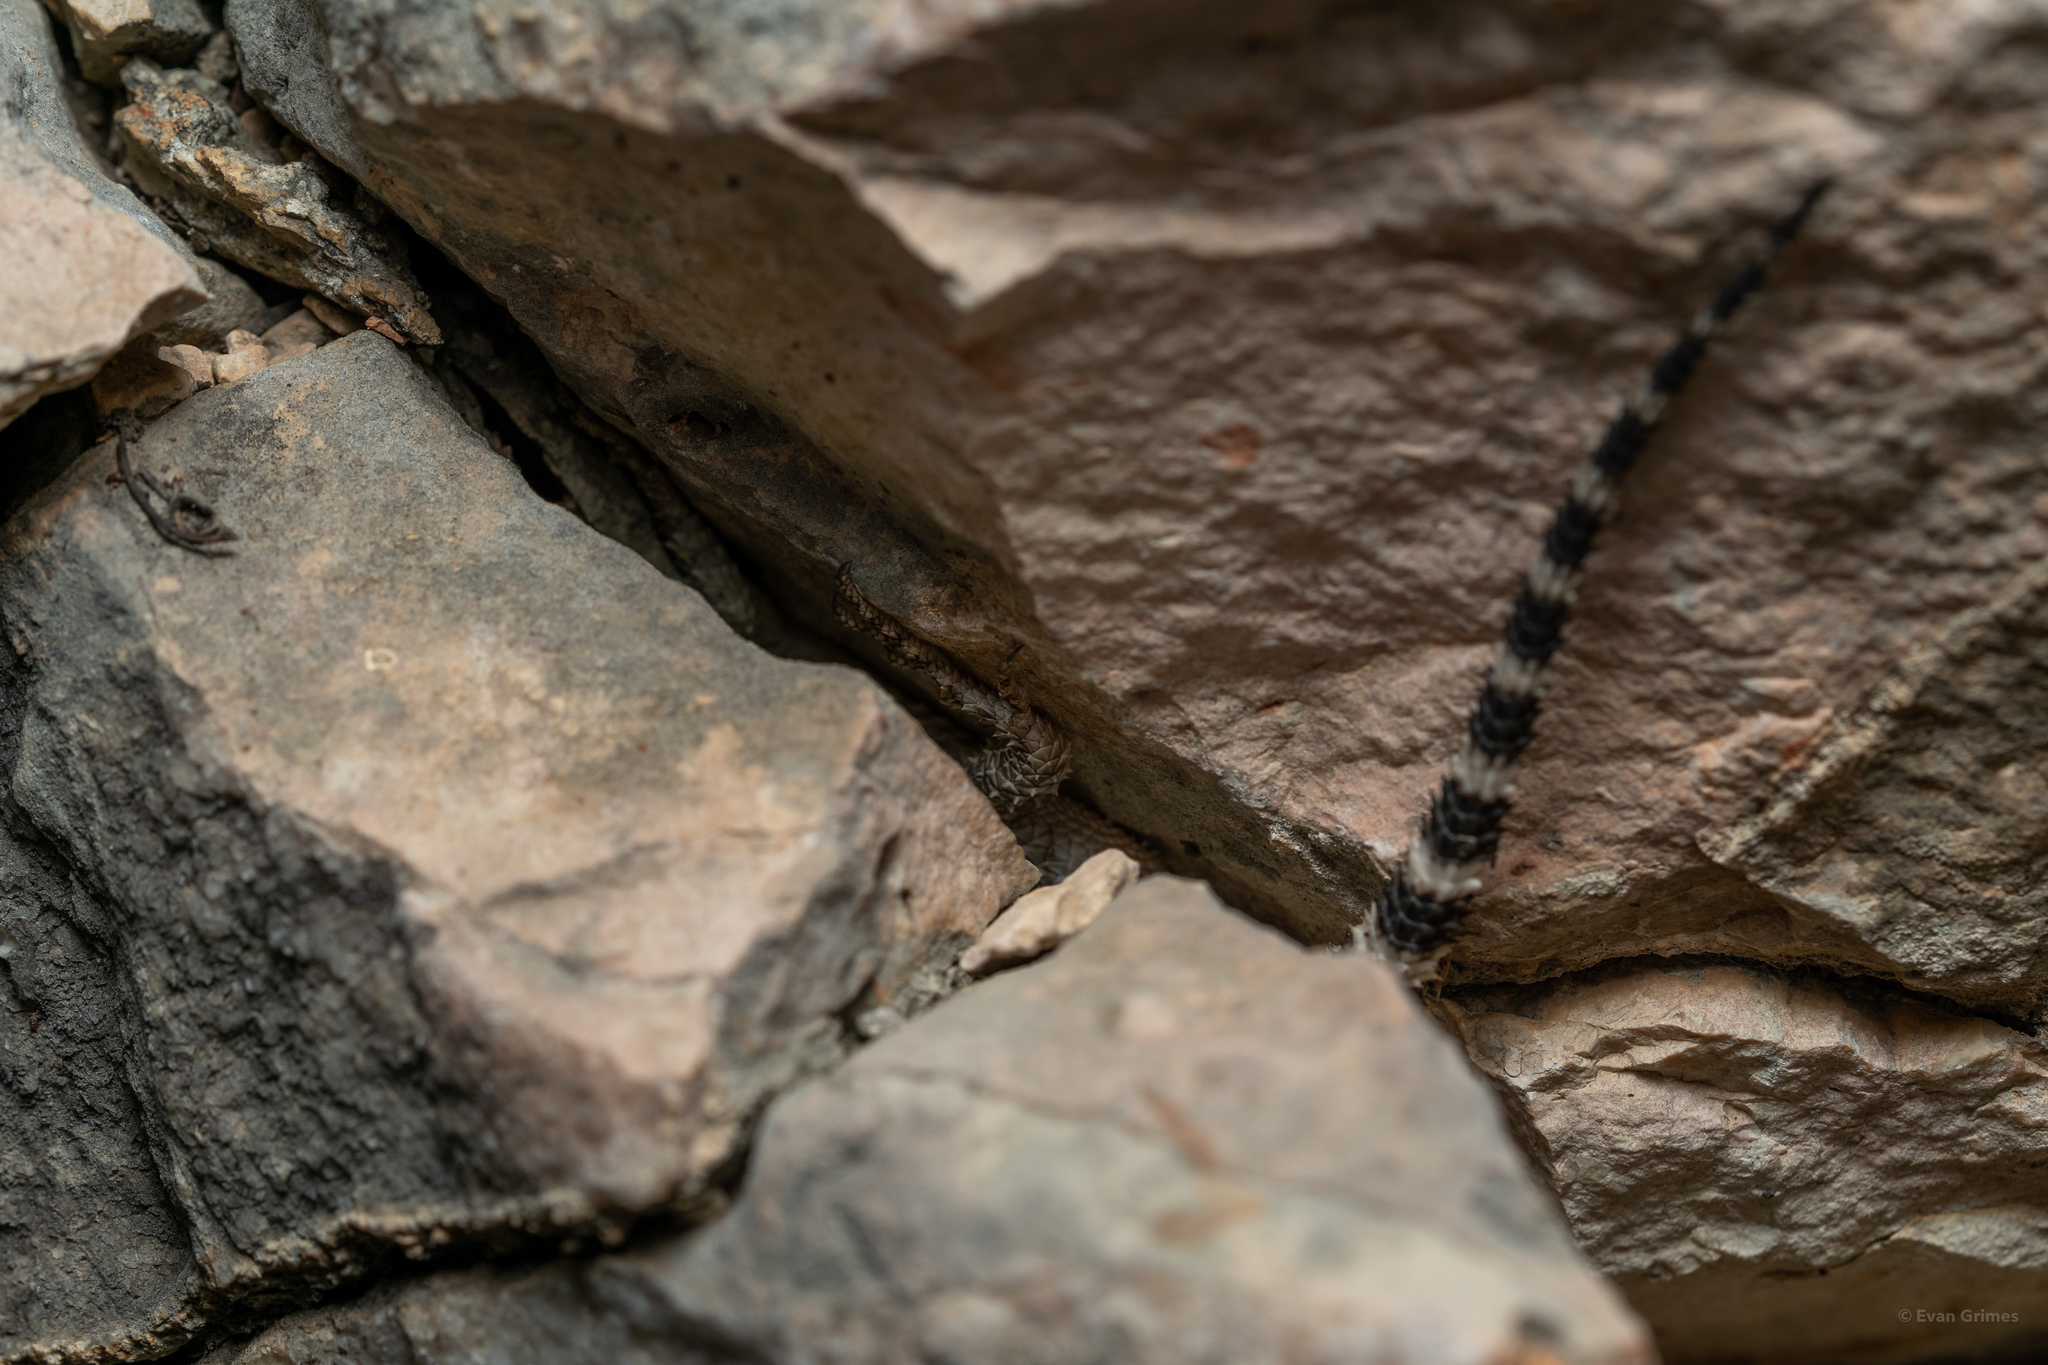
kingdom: Animalia
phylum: Chordata
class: Squamata
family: Phrynosomatidae
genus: Sceloporus
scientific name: Sceloporus poinsettii
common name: Crevice spiny lizard
